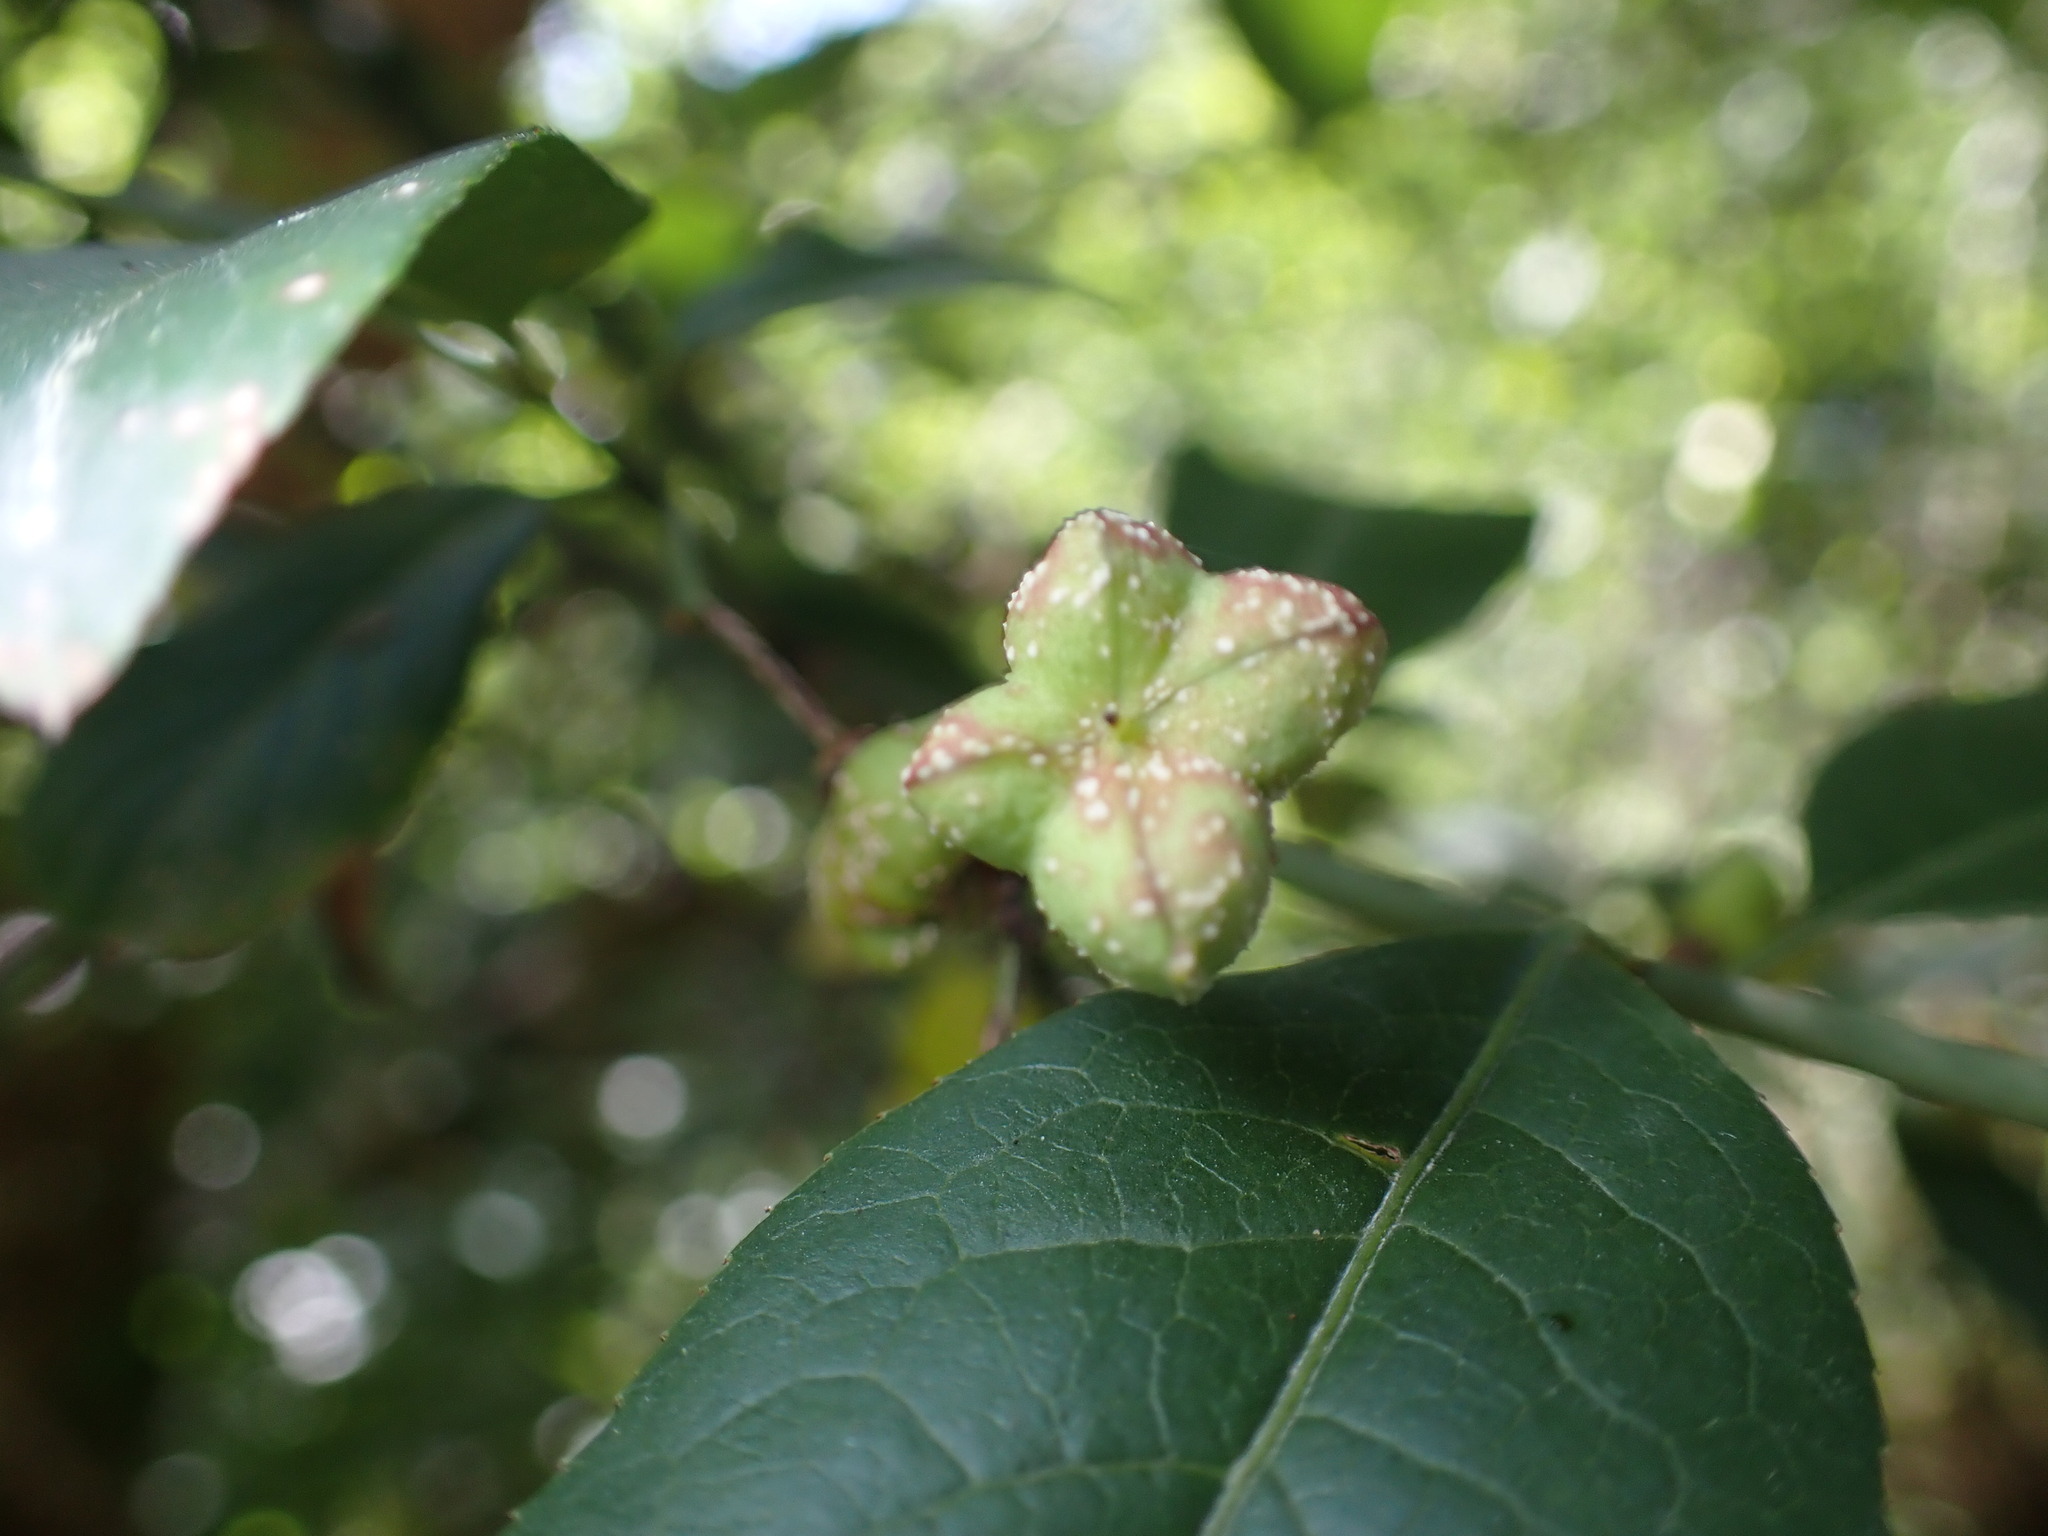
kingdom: Plantae
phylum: Tracheophyta
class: Magnoliopsida
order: Celastrales
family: Celastraceae
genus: Euonymus
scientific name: Euonymus europaeus
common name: Spindle
